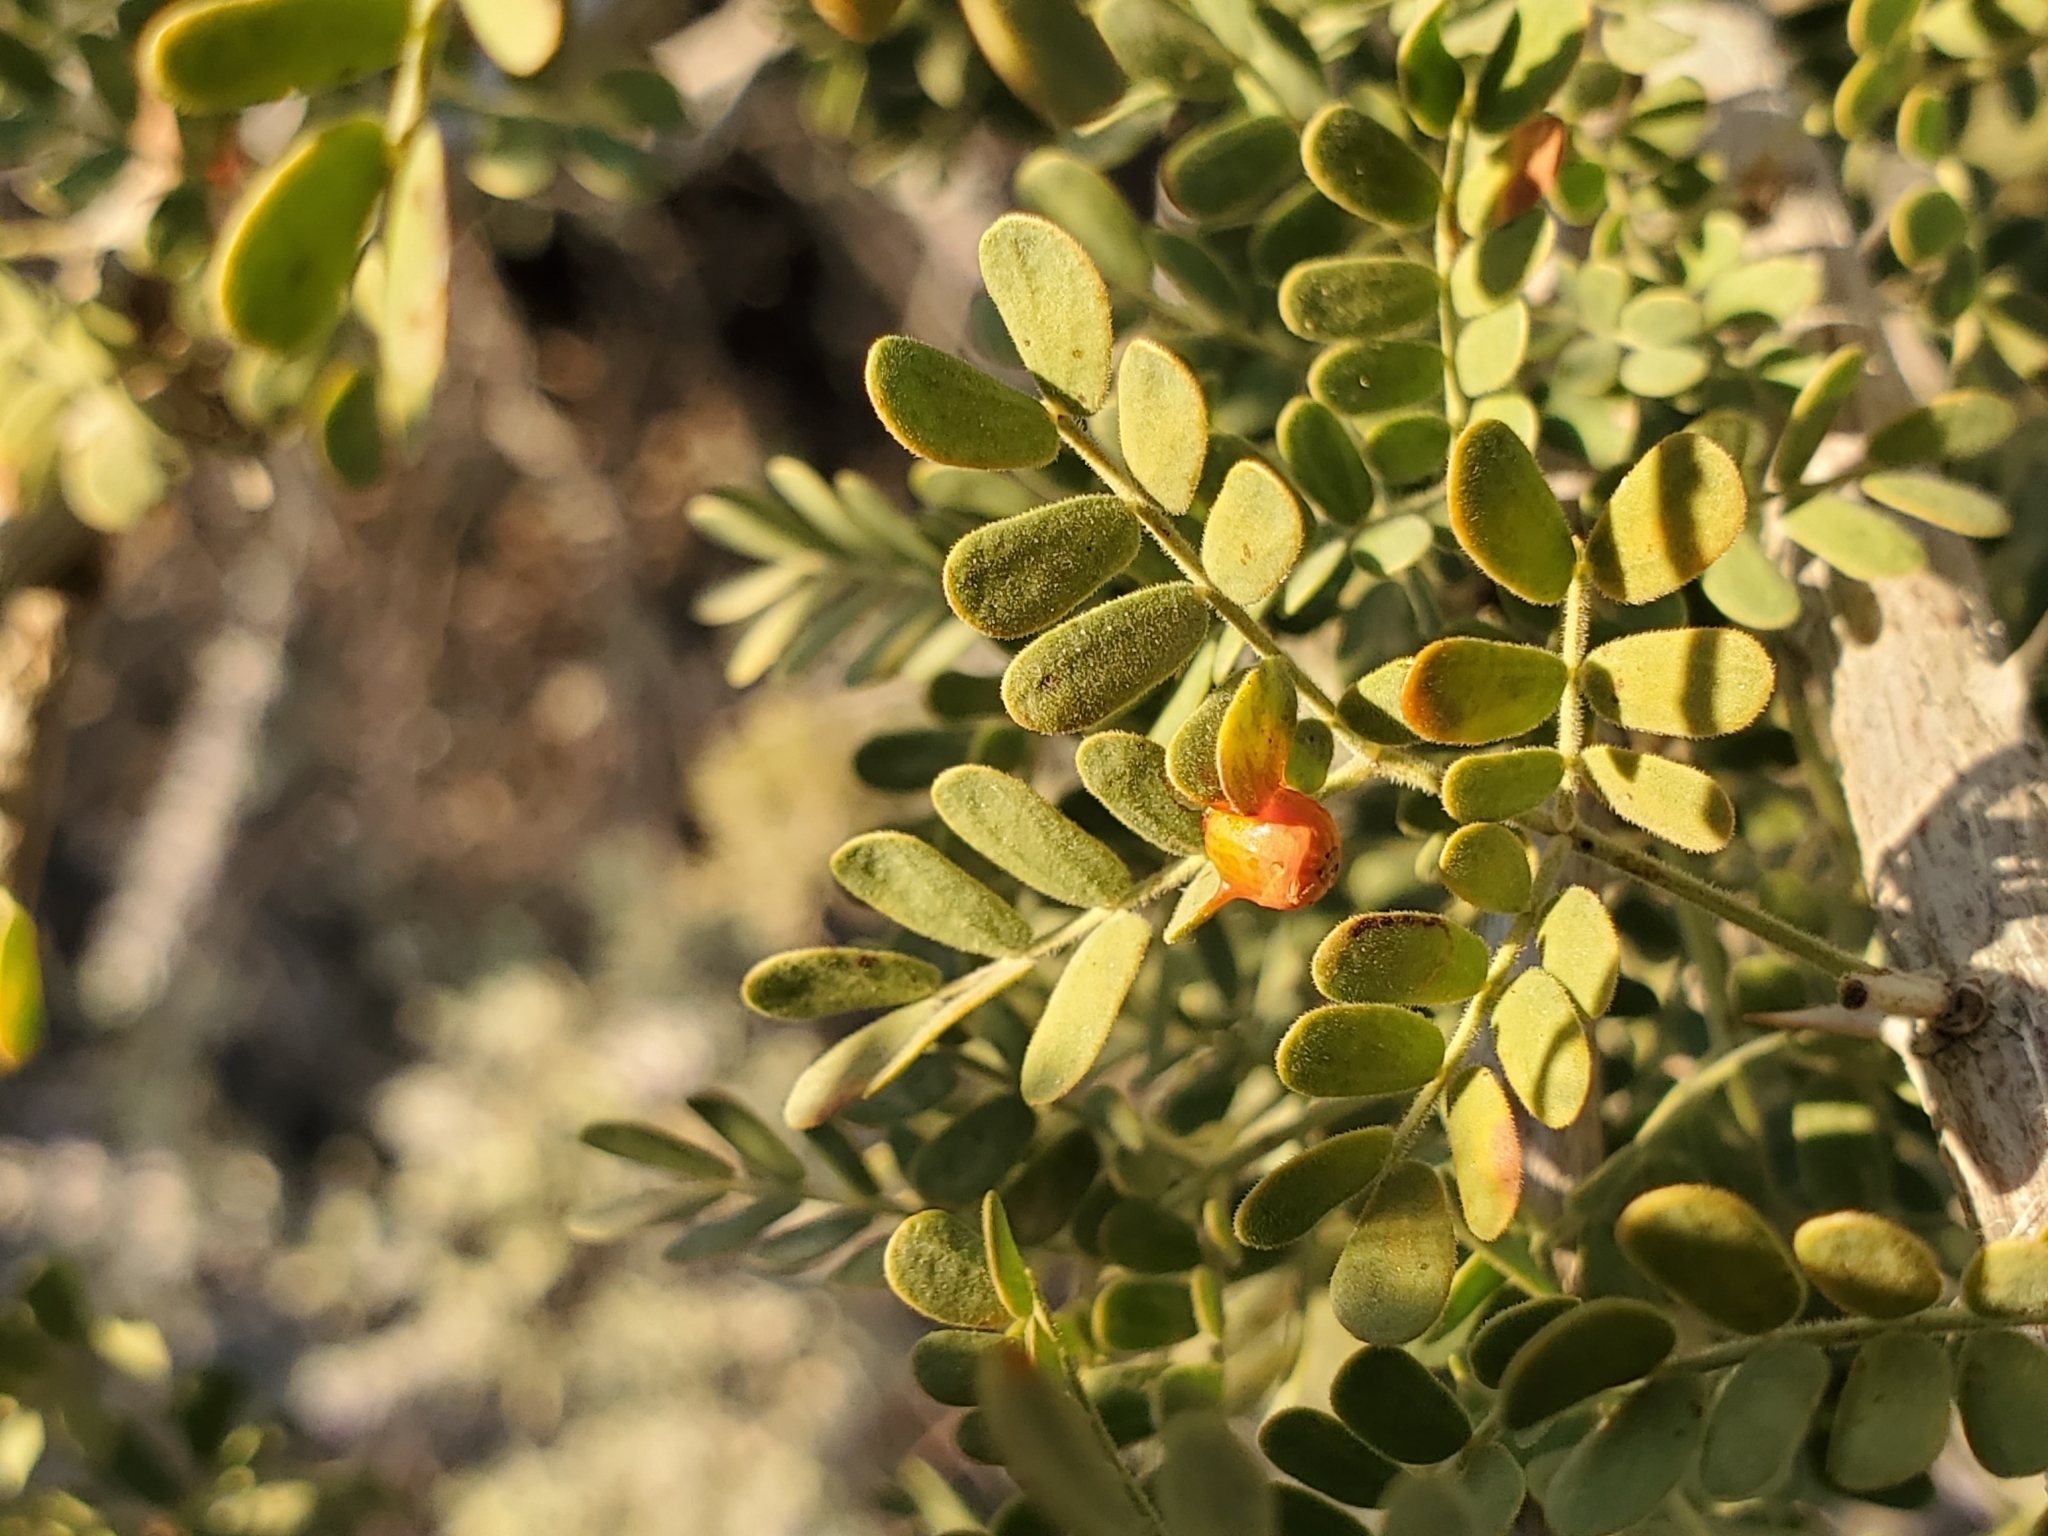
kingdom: Plantae
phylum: Tracheophyta
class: Magnoliopsida
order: Santalales
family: Viscaceae
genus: Phoradendron
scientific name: Phoradendron californicum
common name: Acacia mistletoe
